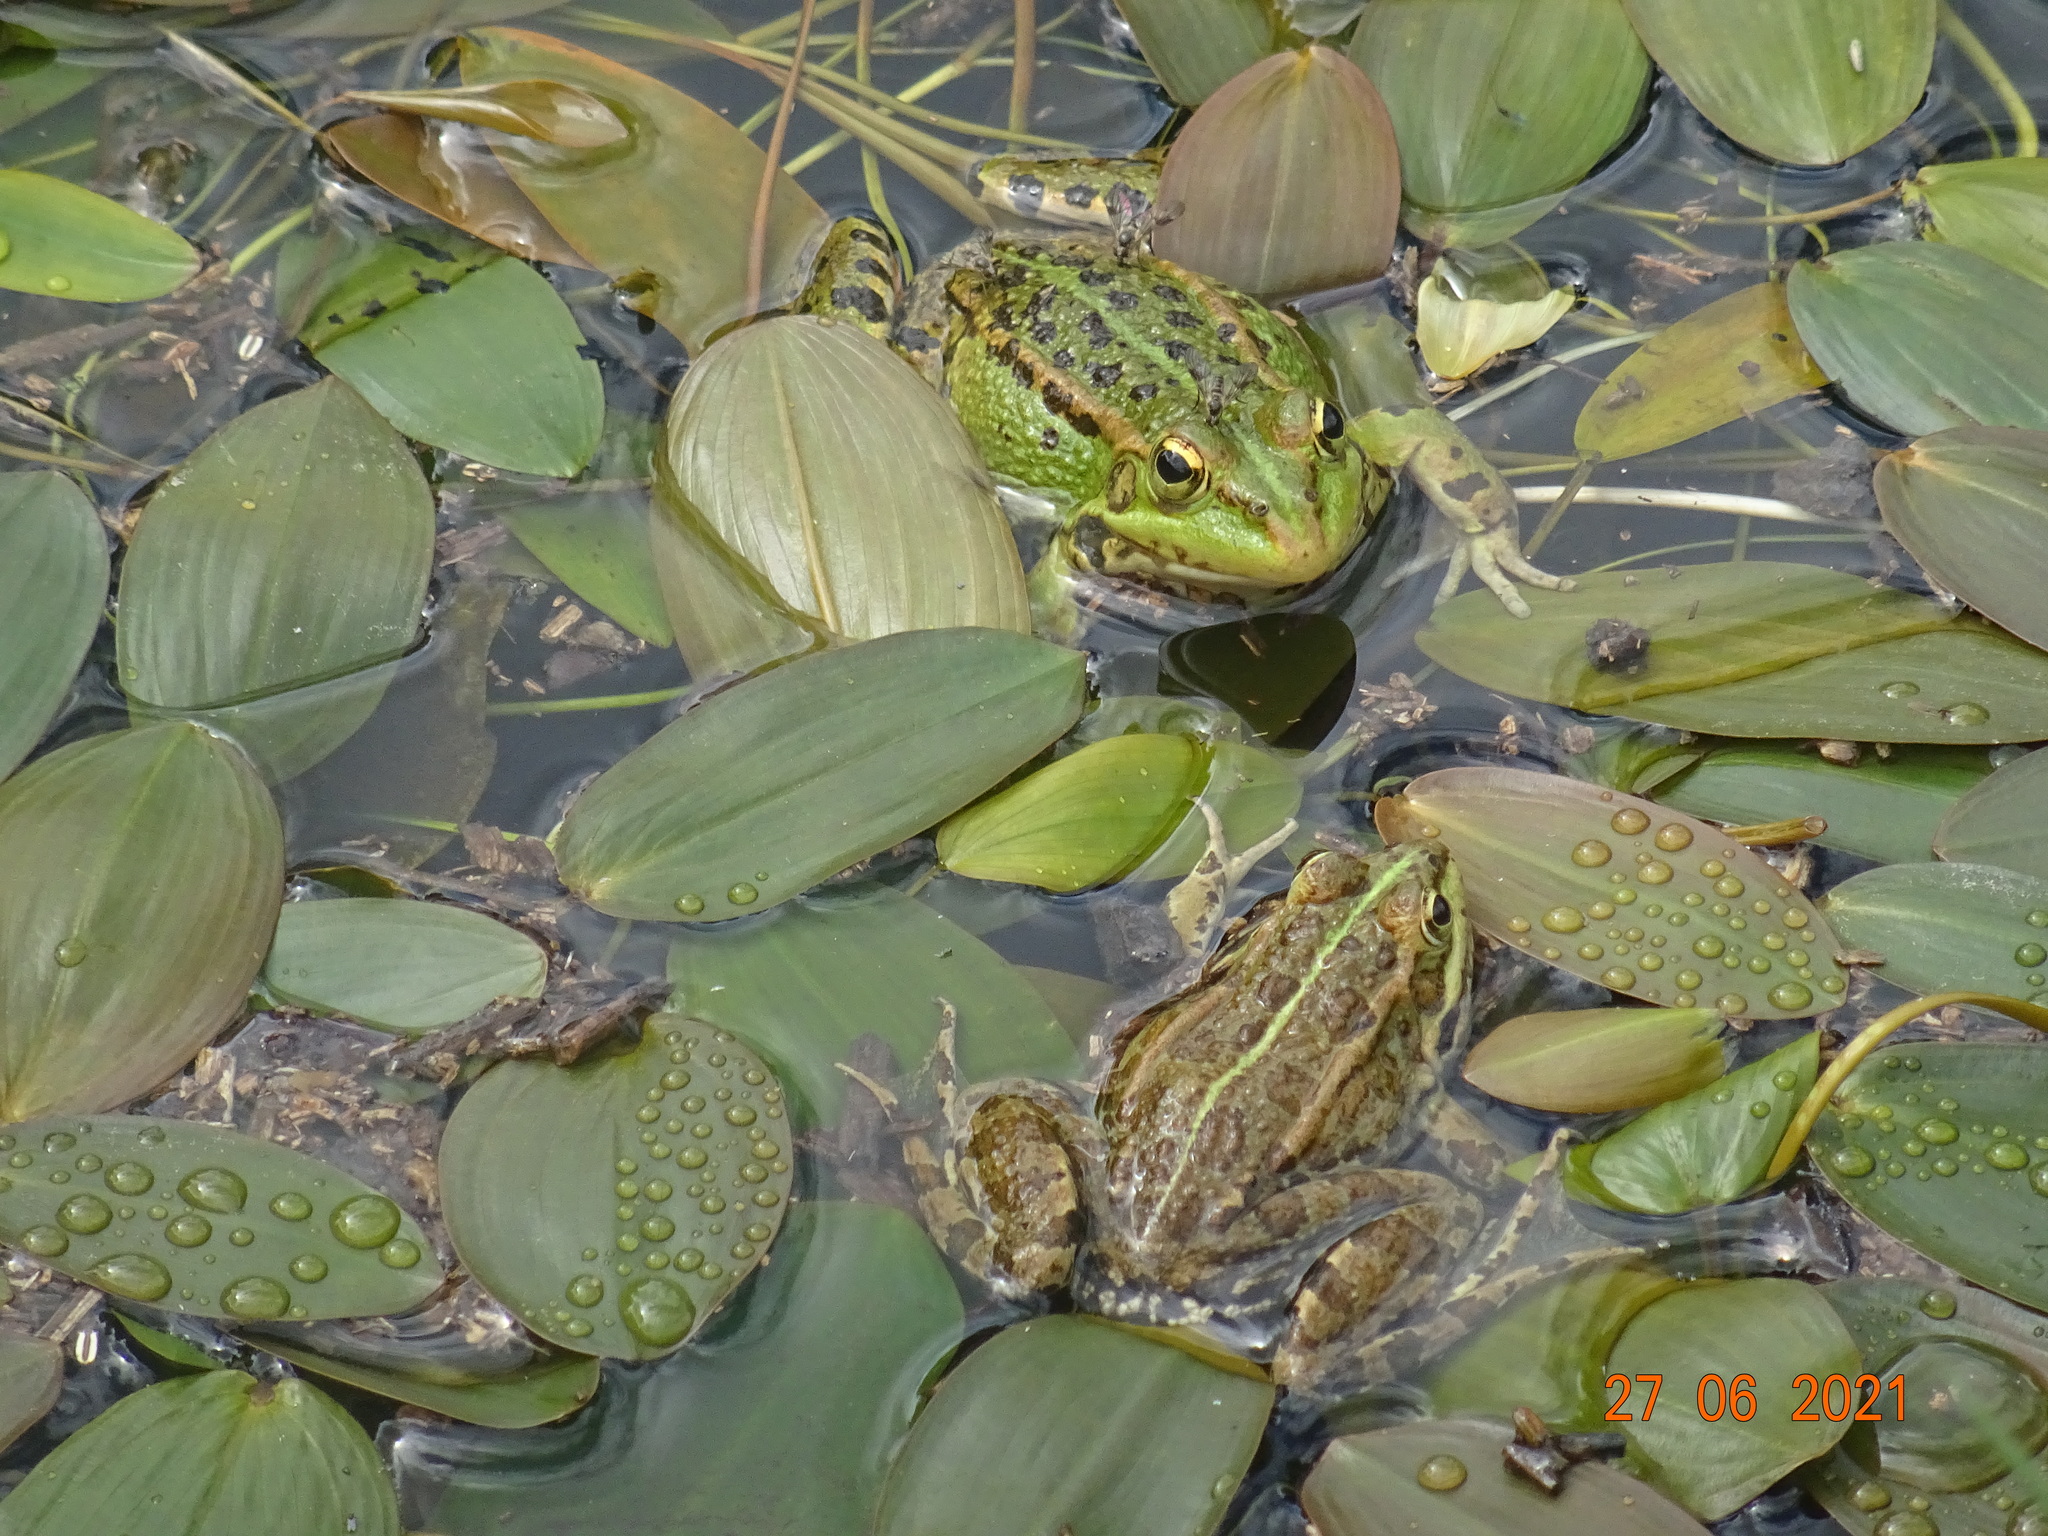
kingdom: Animalia
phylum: Chordata
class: Amphibia
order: Anura
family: Ranidae
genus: Pelophylax
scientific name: Pelophylax perezi
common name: Perez's frog
